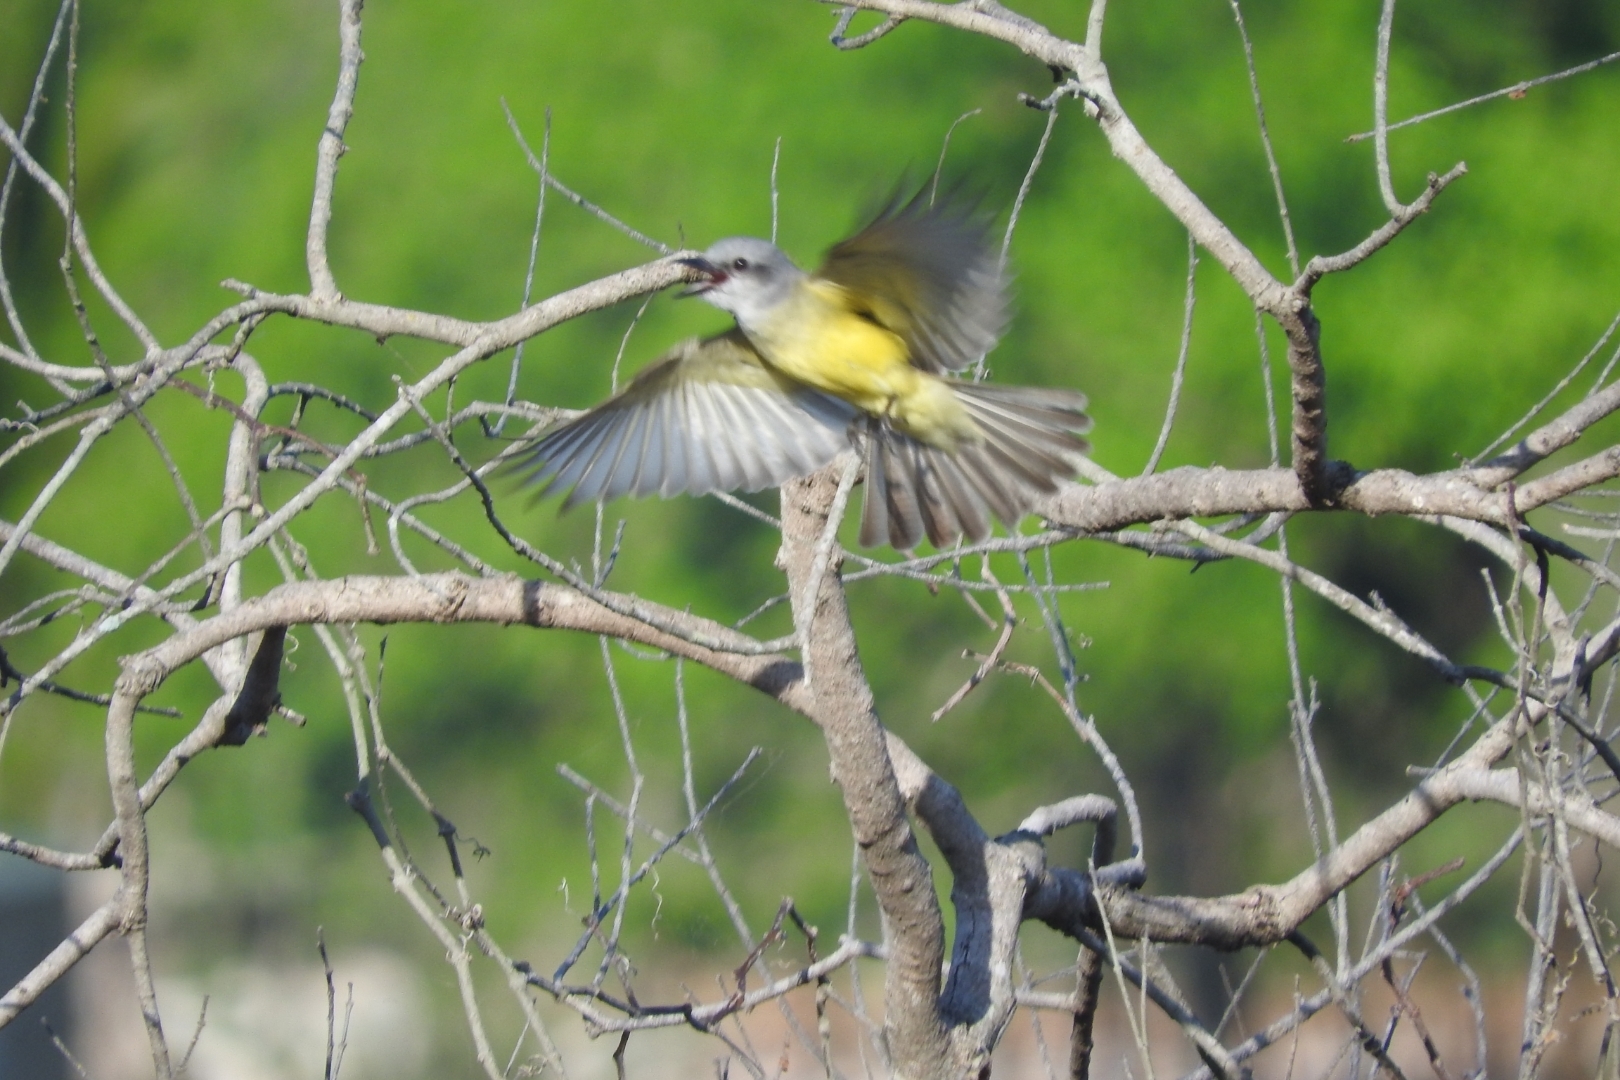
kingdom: Animalia
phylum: Chordata
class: Aves
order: Passeriformes
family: Tyrannidae
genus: Tyrannus
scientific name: Tyrannus couchii
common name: Couch's kingbird
